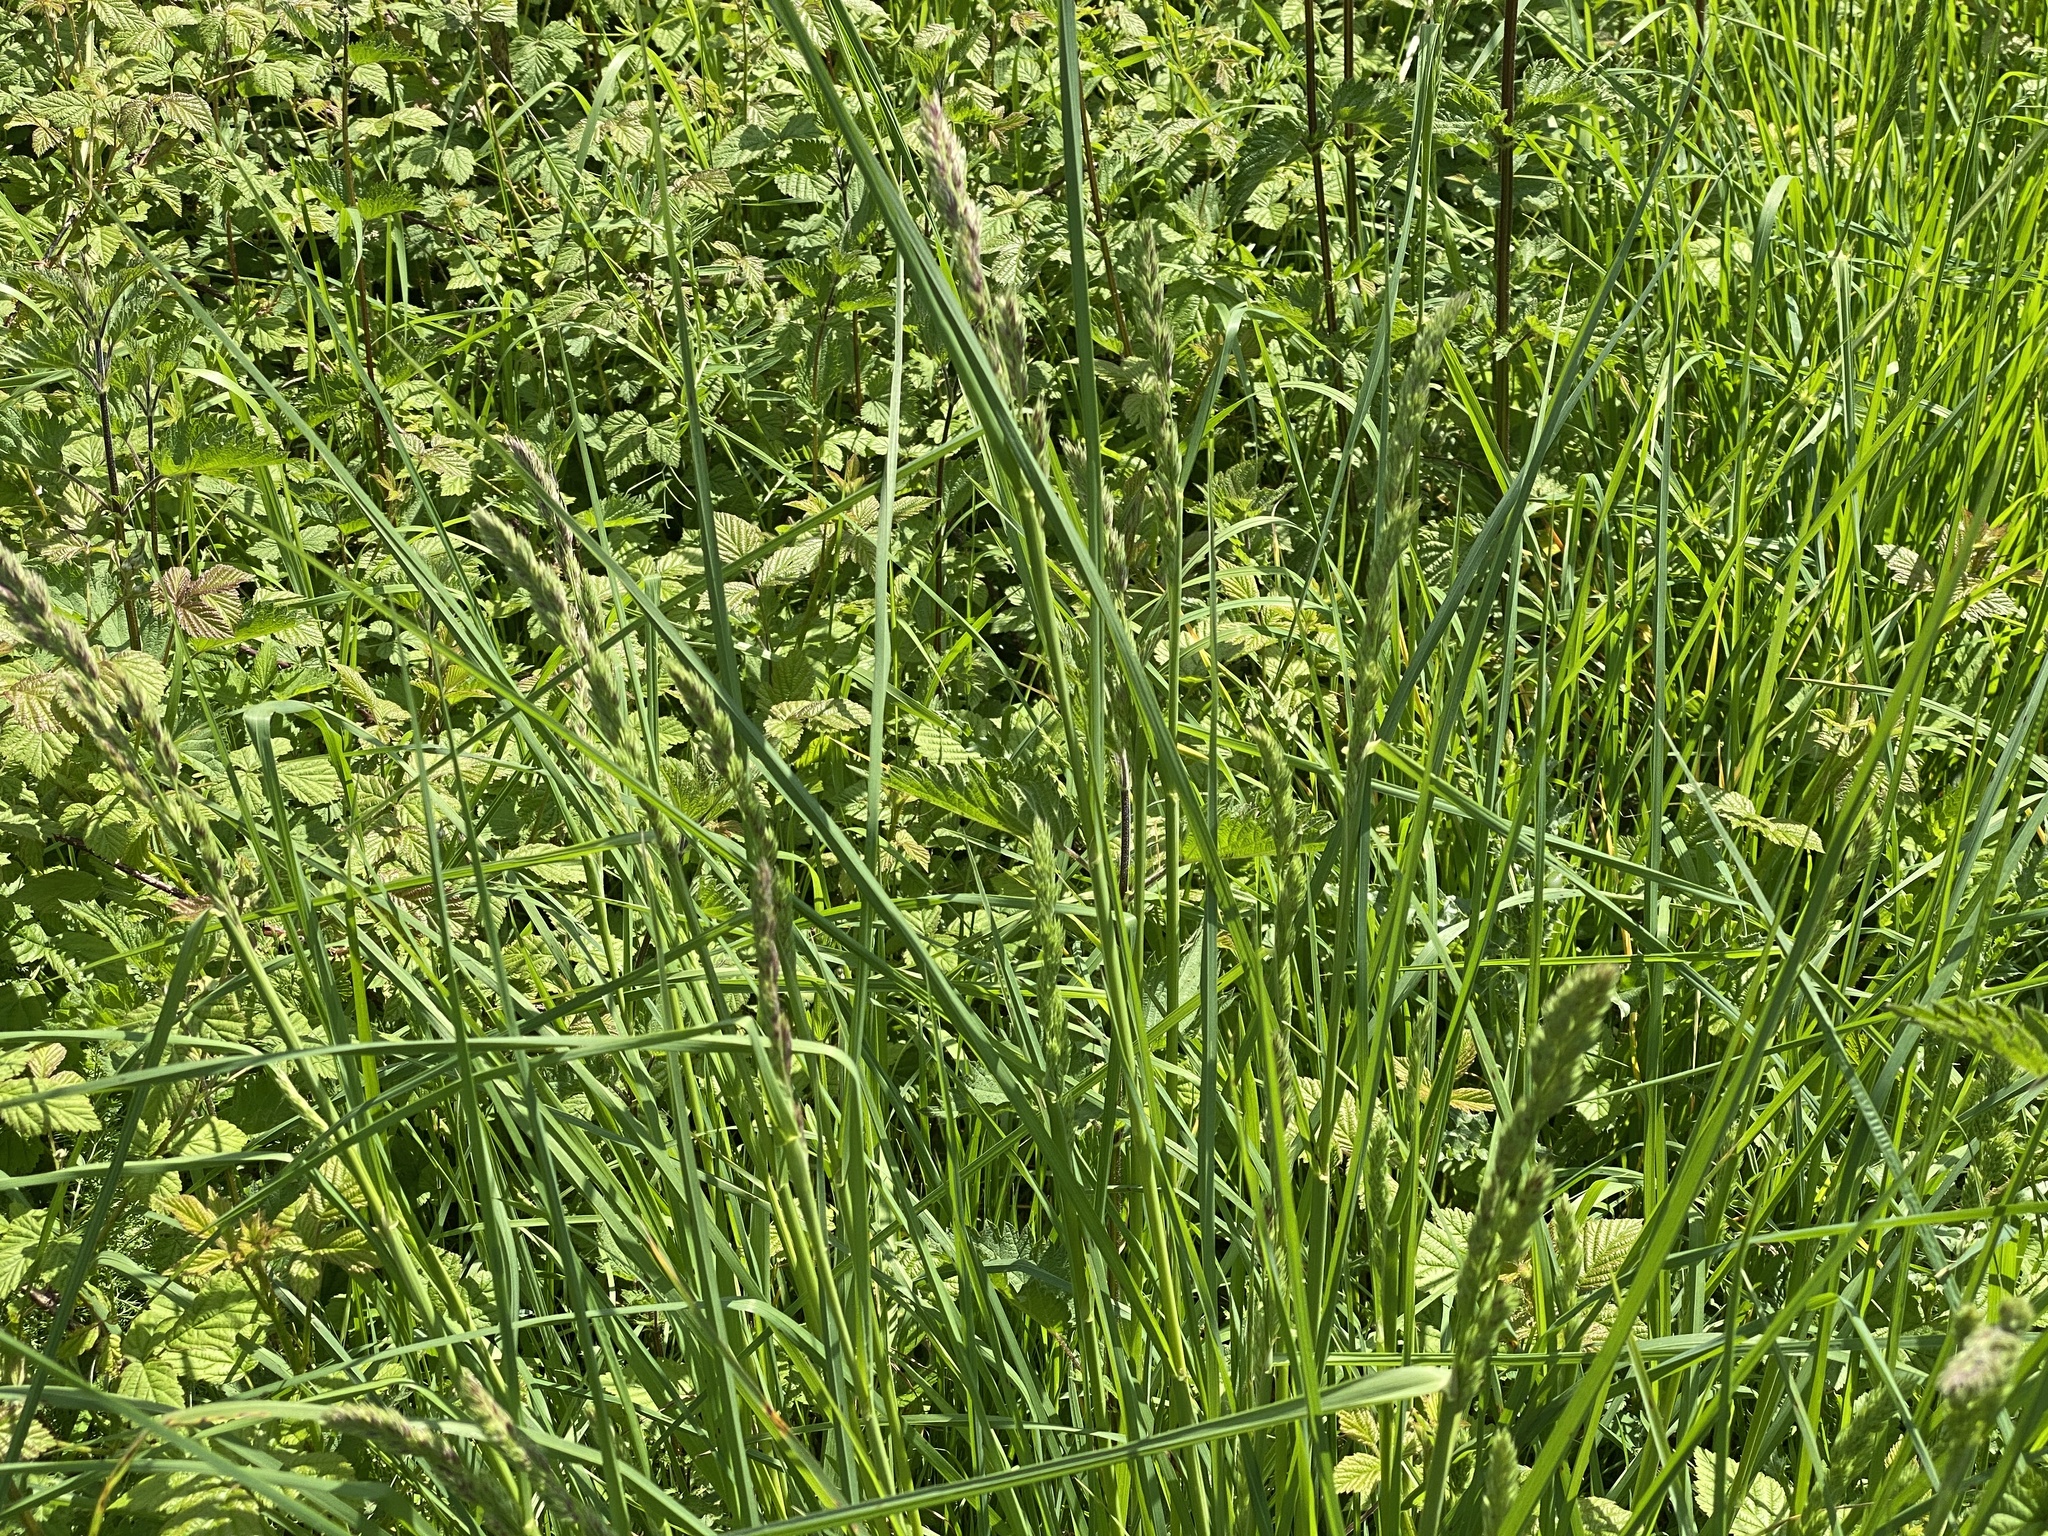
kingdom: Plantae
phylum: Tracheophyta
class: Liliopsida
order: Poales
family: Poaceae
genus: Dactylis
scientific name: Dactylis glomerata
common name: Orchardgrass
